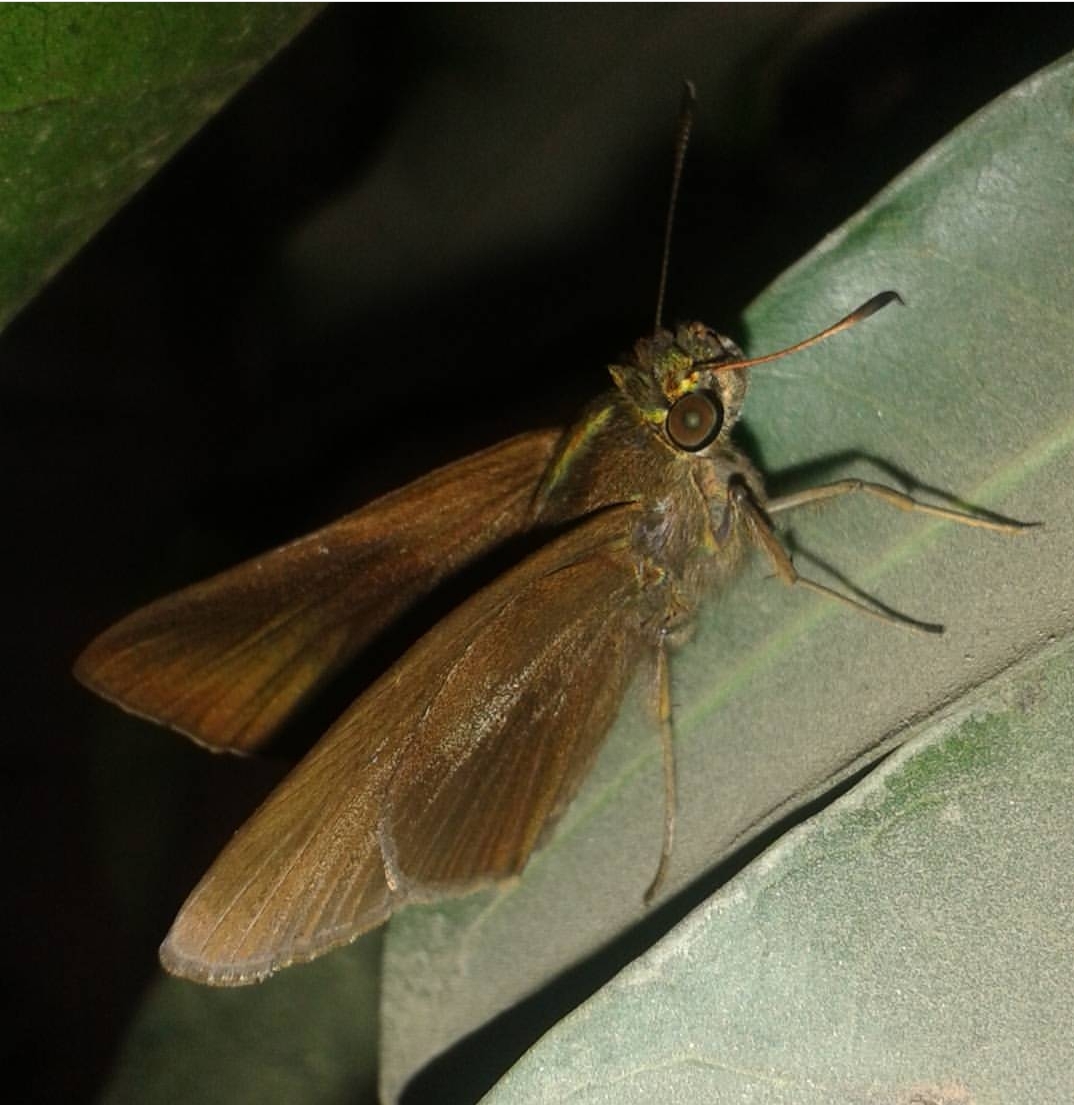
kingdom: Animalia
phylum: Arthropoda
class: Insecta
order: Lepidoptera
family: Hesperiidae
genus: Pelopidas
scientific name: Pelopidas agna
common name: Little branded swift
